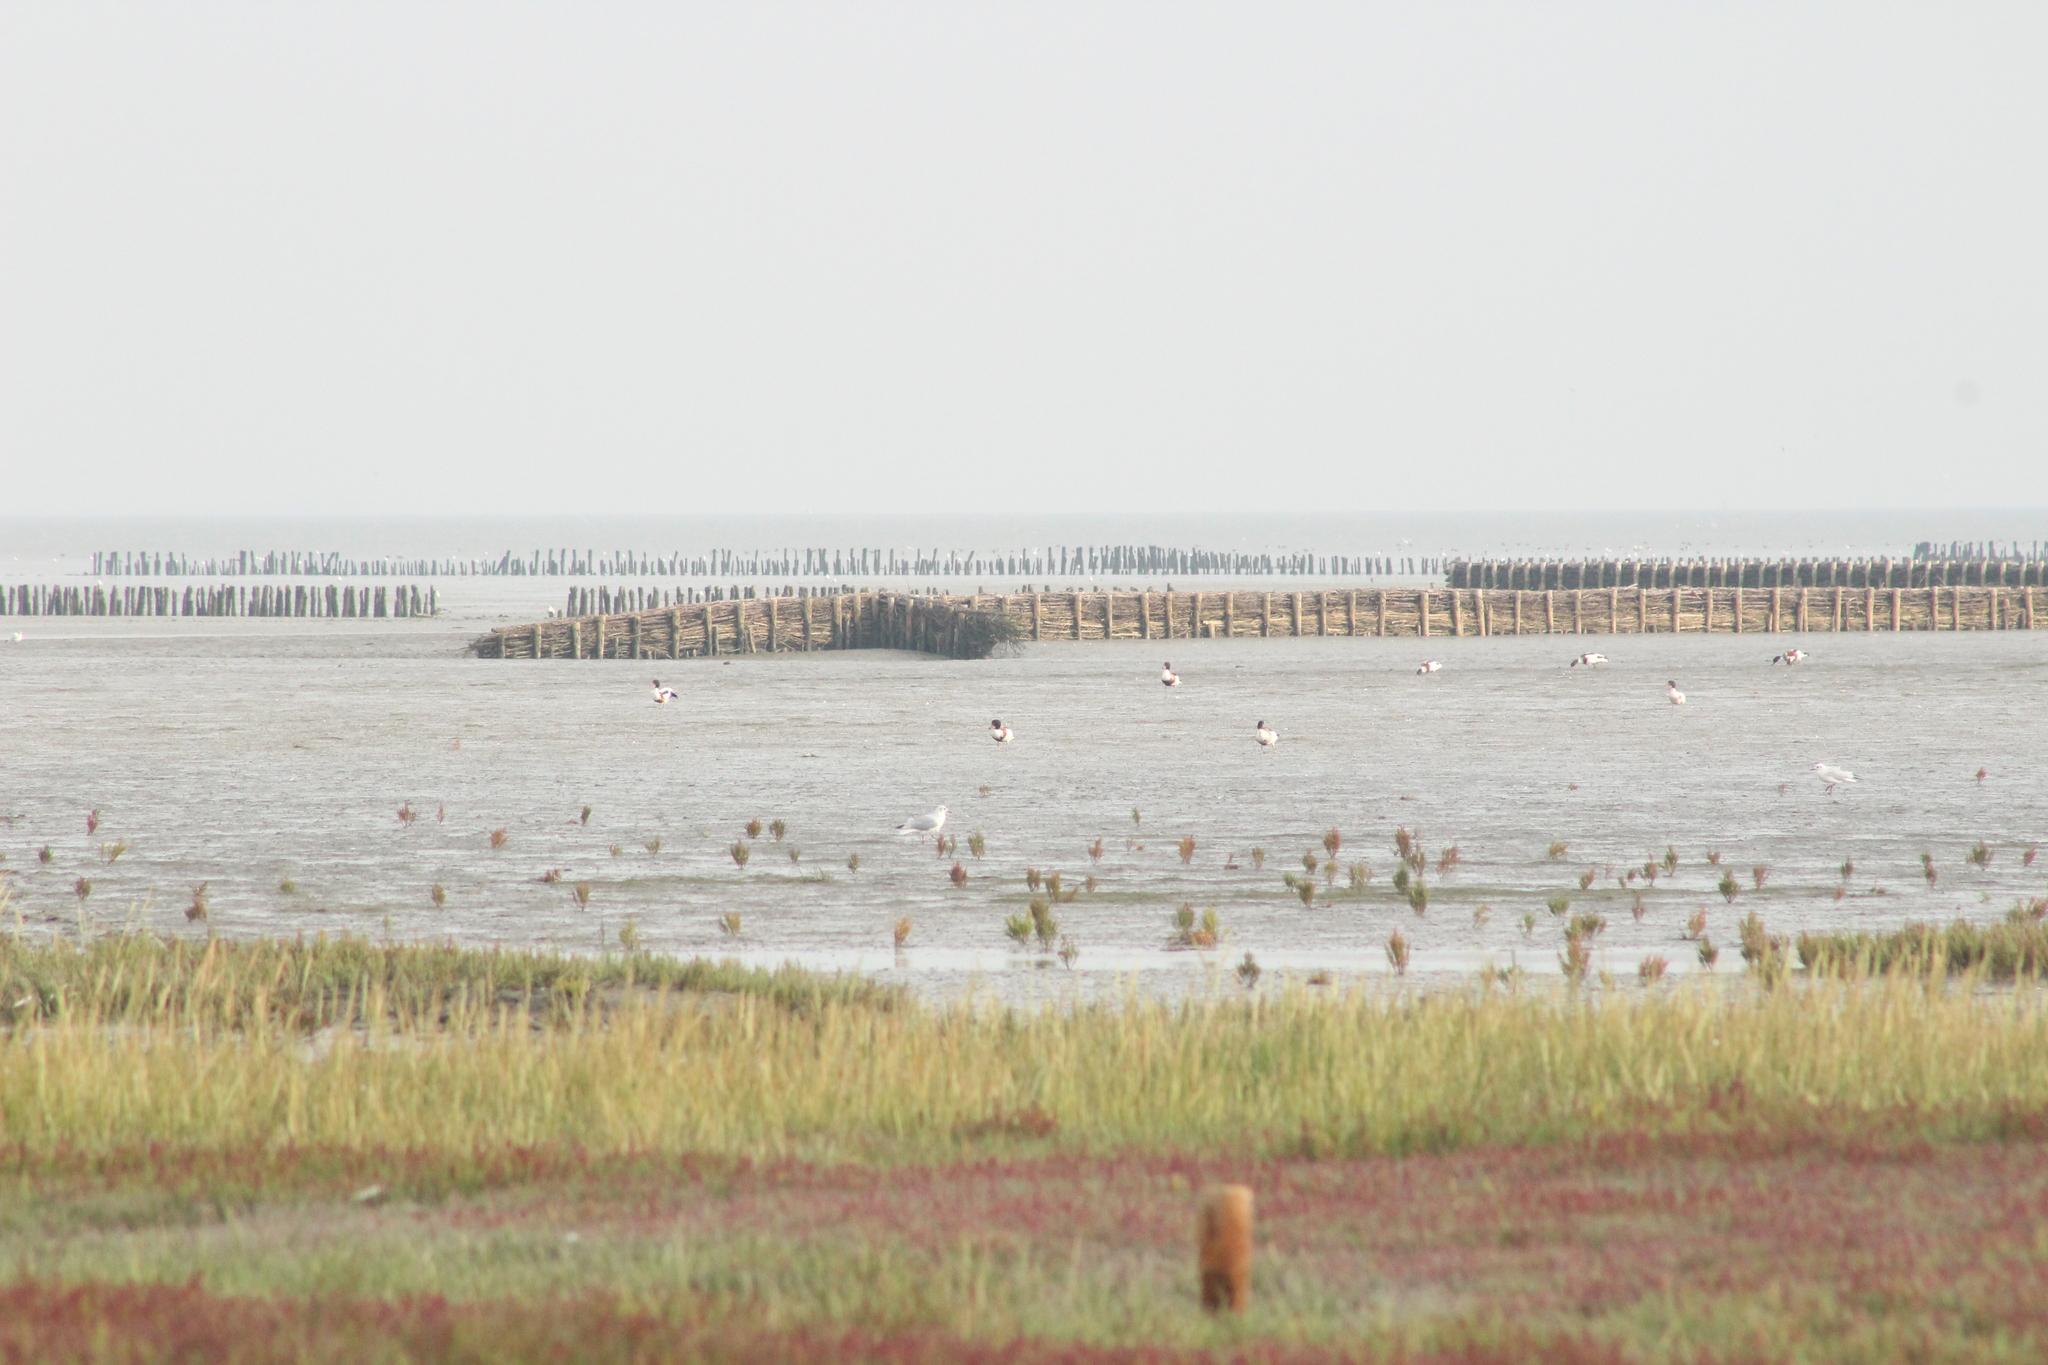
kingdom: Animalia
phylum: Chordata
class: Aves
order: Anseriformes
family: Anatidae
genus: Tadorna
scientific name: Tadorna tadorna
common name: Common shelduck
